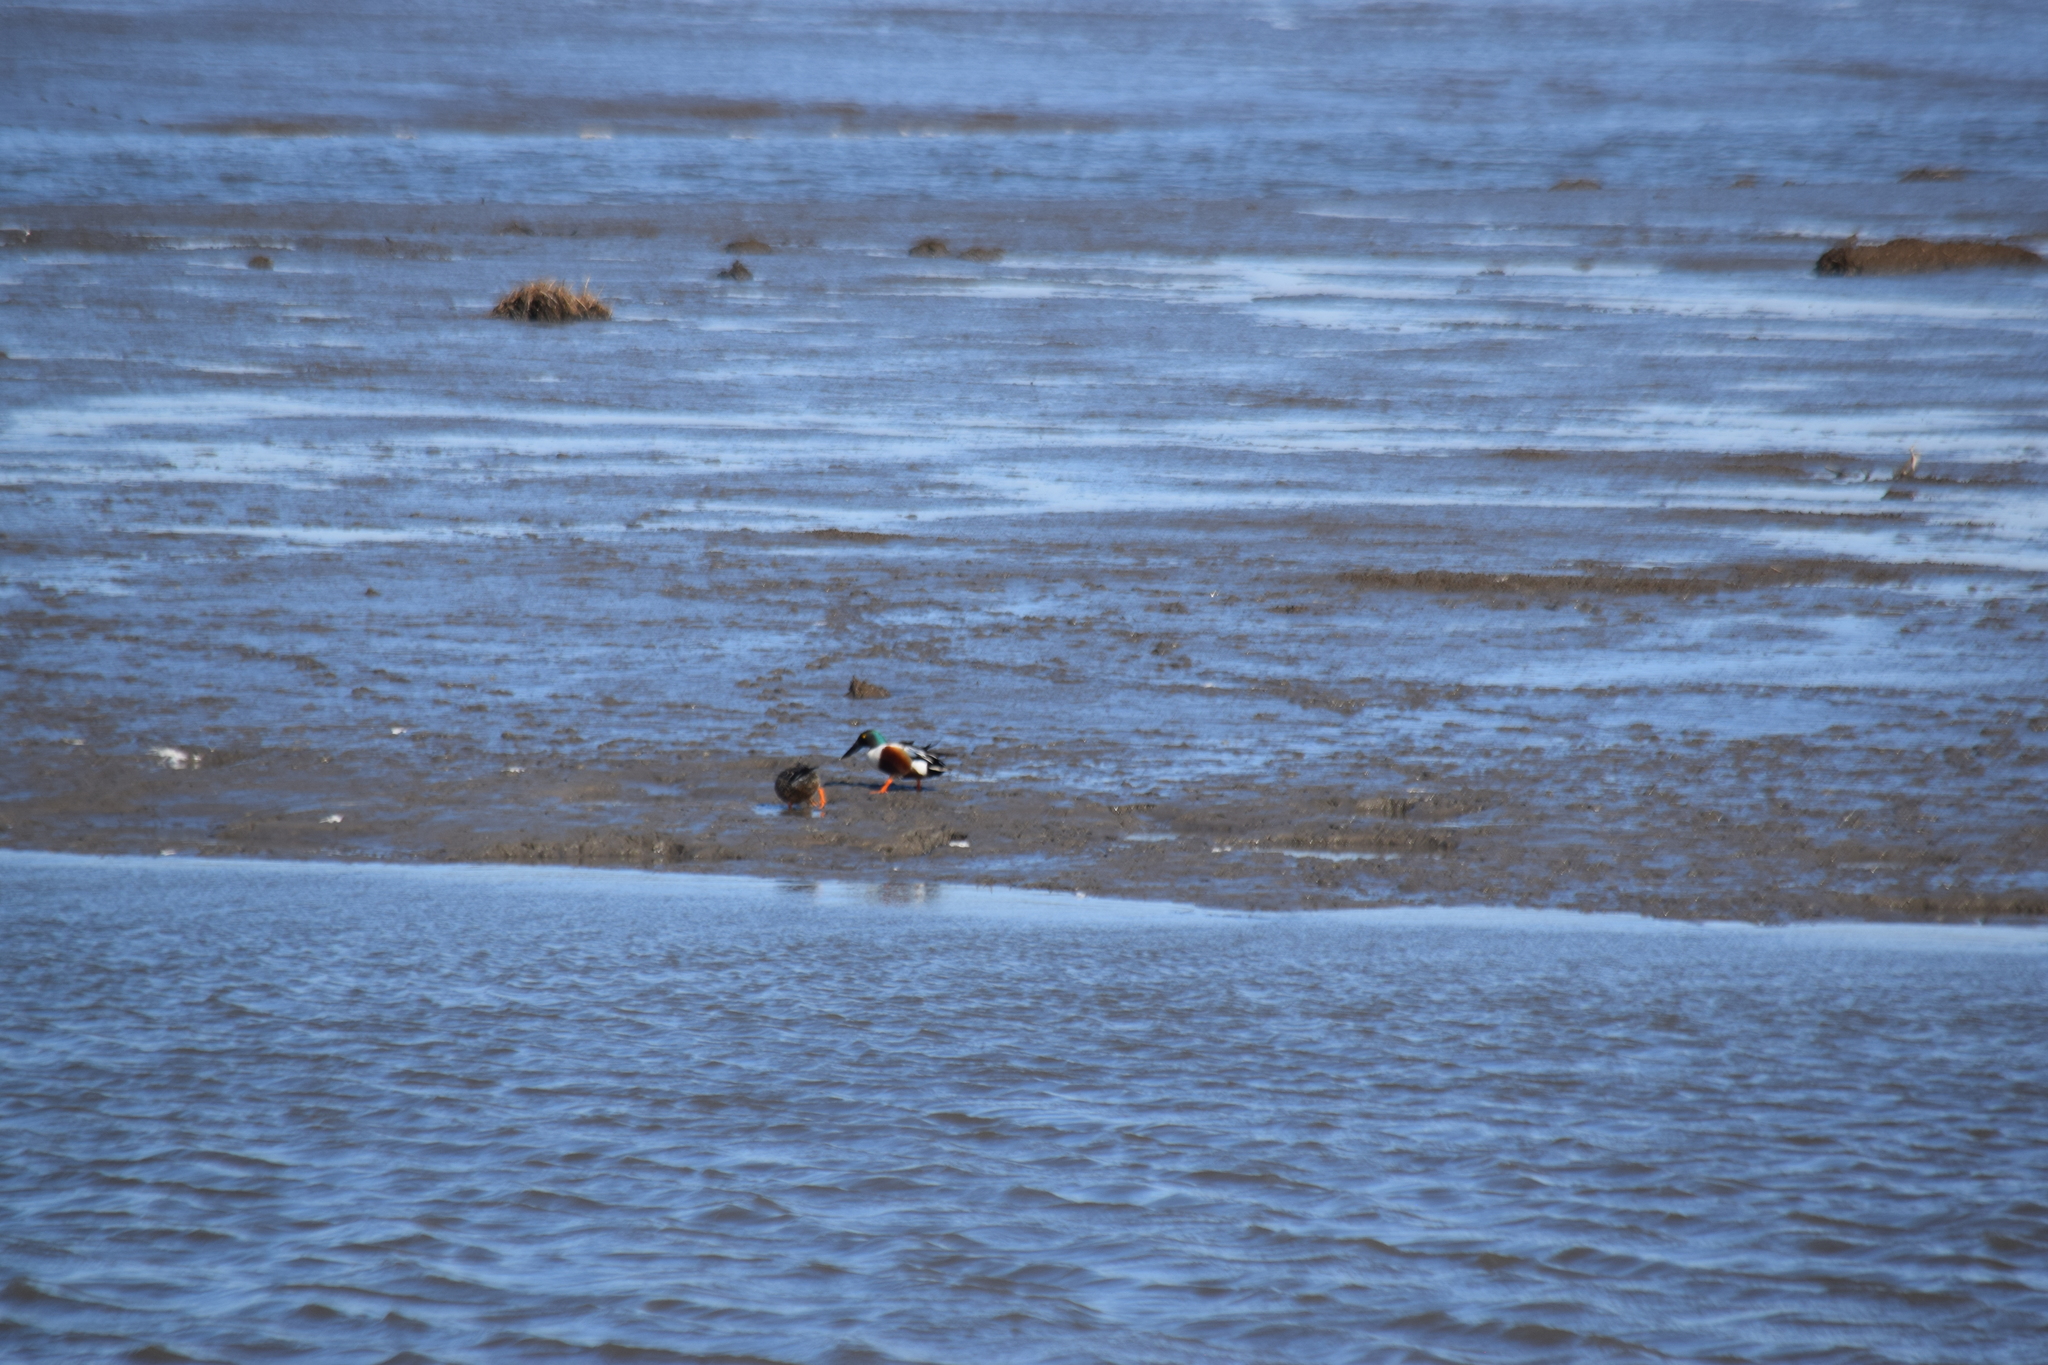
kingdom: Animalia
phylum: Chordata
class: Aves
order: Anseriformes
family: Anatidae
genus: Spatula
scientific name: Spatula clypeata
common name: Northern shoveler
